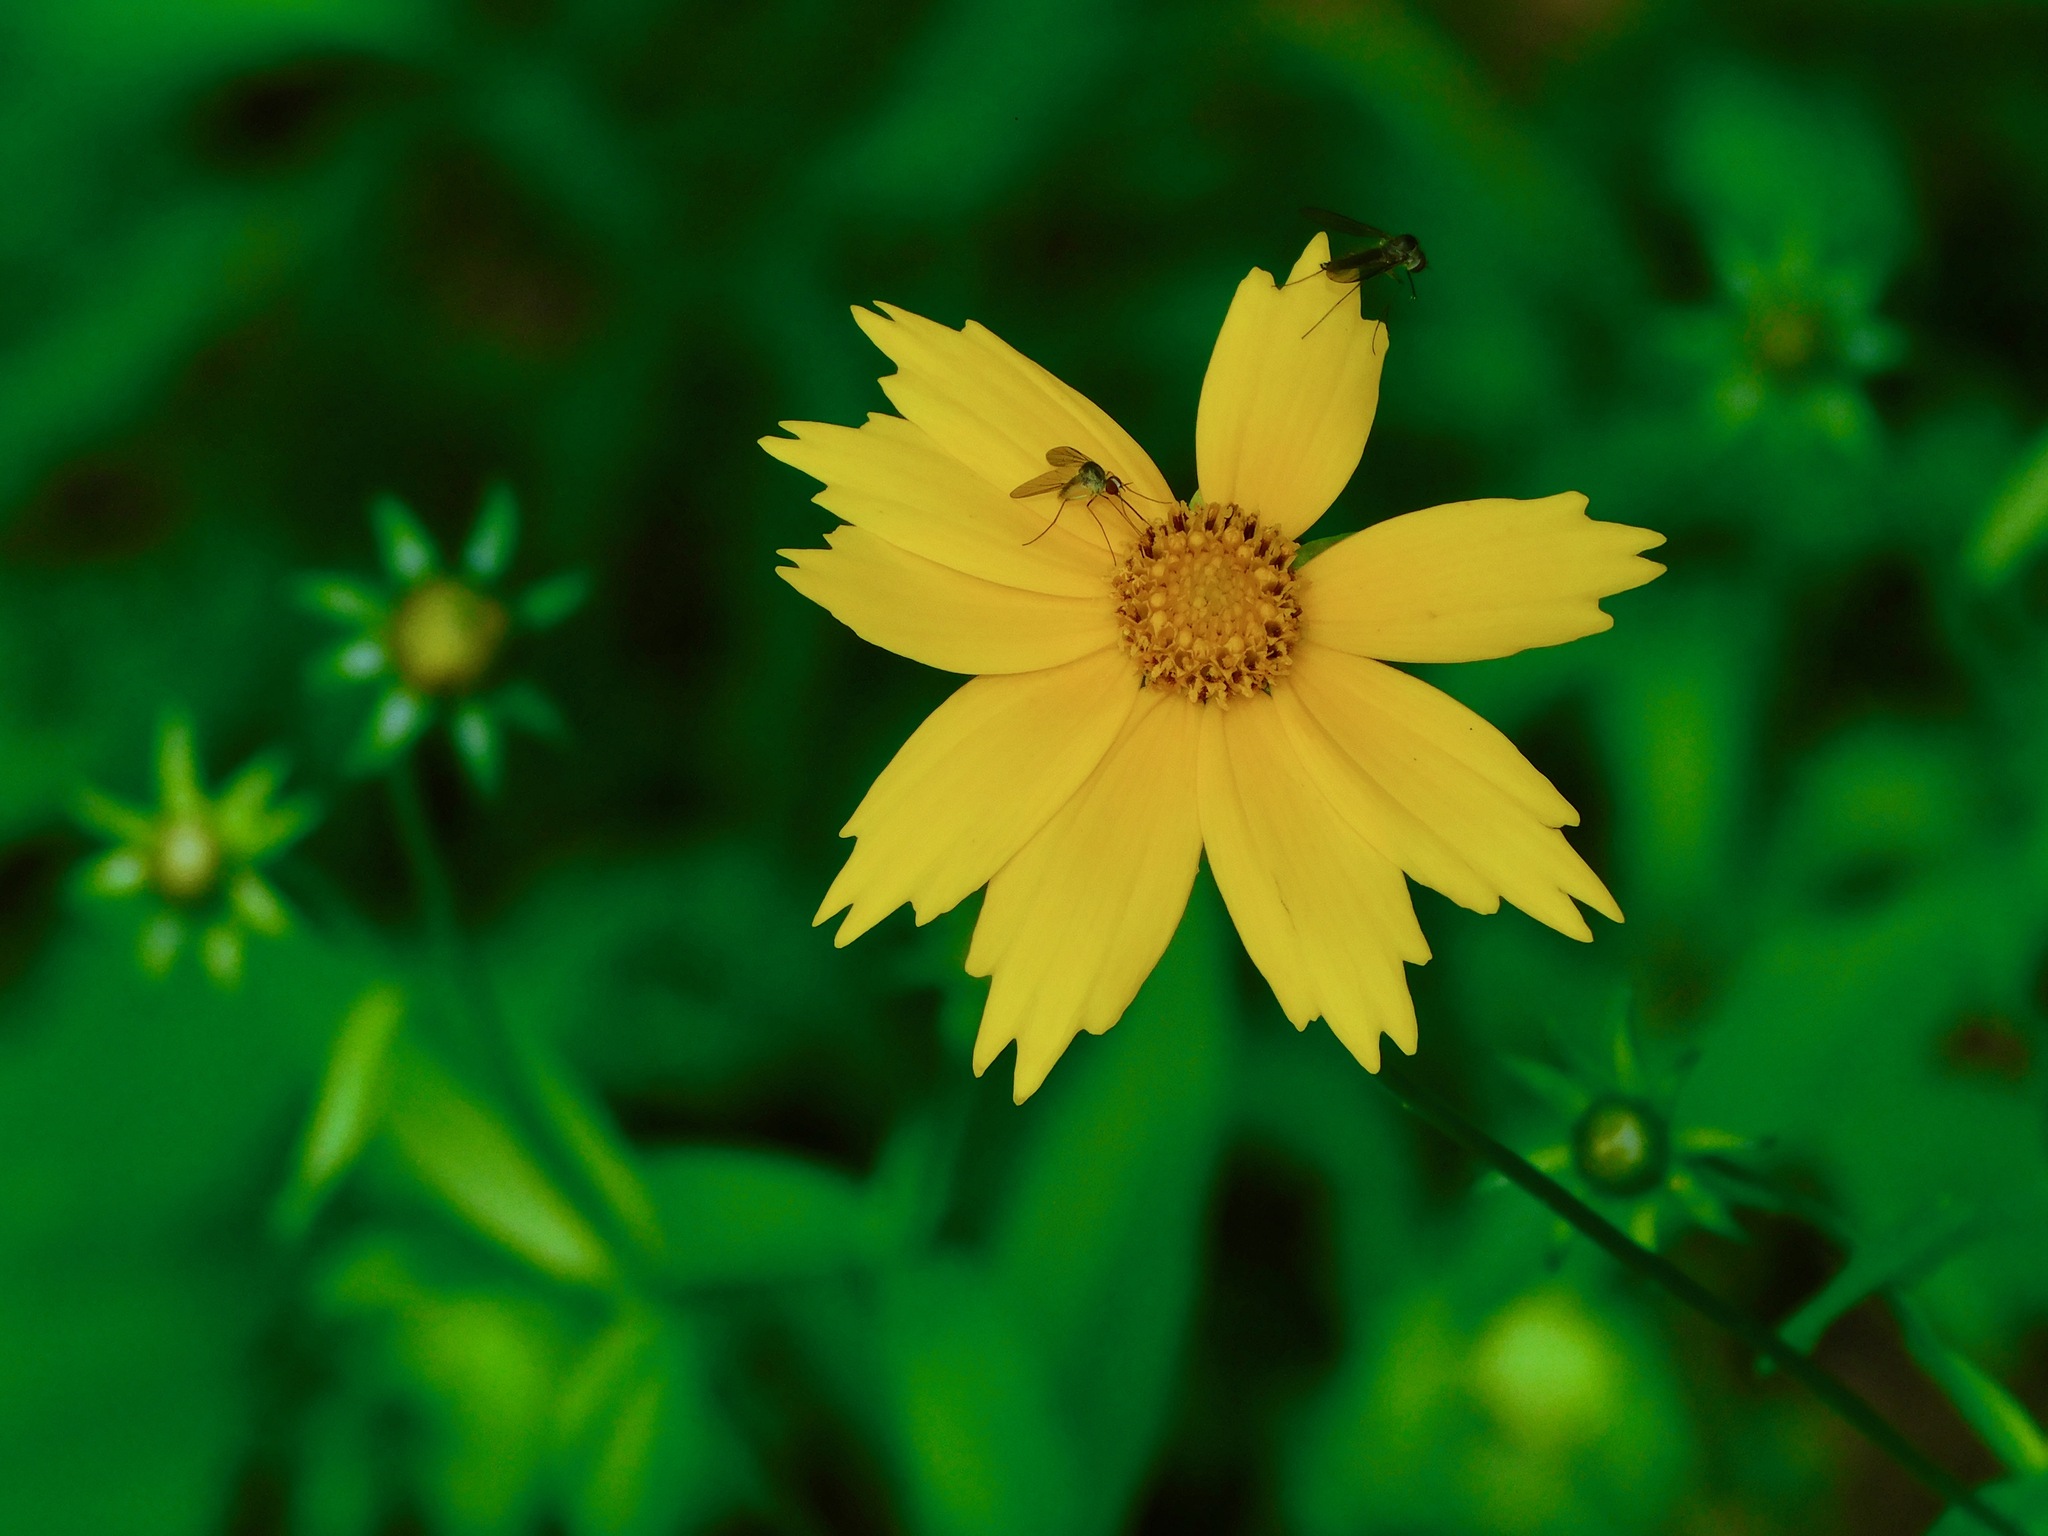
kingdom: Plantae
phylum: Tracheophyta
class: Magnoliopsida
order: Asterales
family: Asteraceae
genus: Coreopsis
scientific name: Coreopsis pubescens
